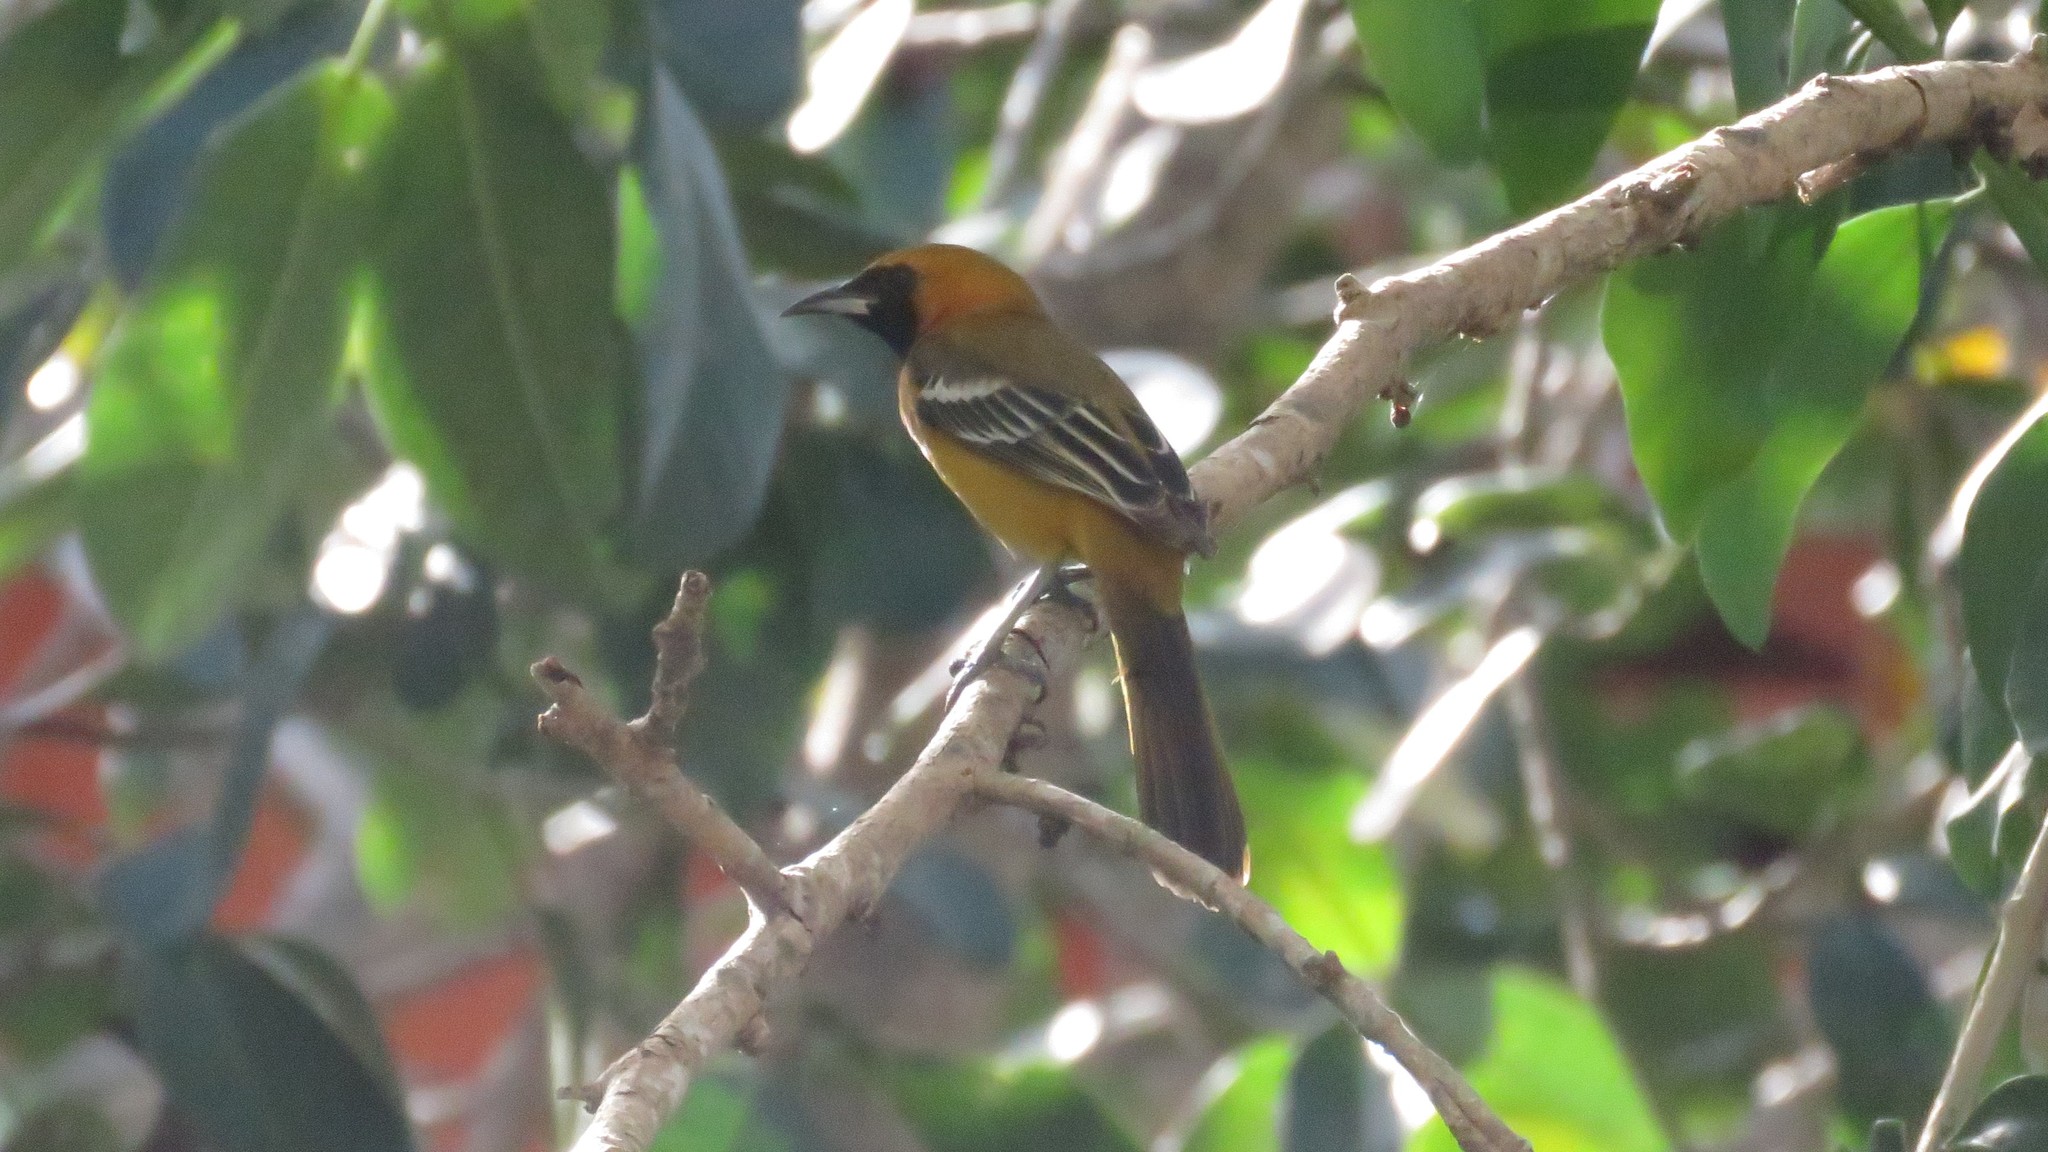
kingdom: Animalia
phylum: Chordata
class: Aves
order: Passeriformes
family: Icteridae
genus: Icterus
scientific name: Icterus cucullatus
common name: Hooded oriole
